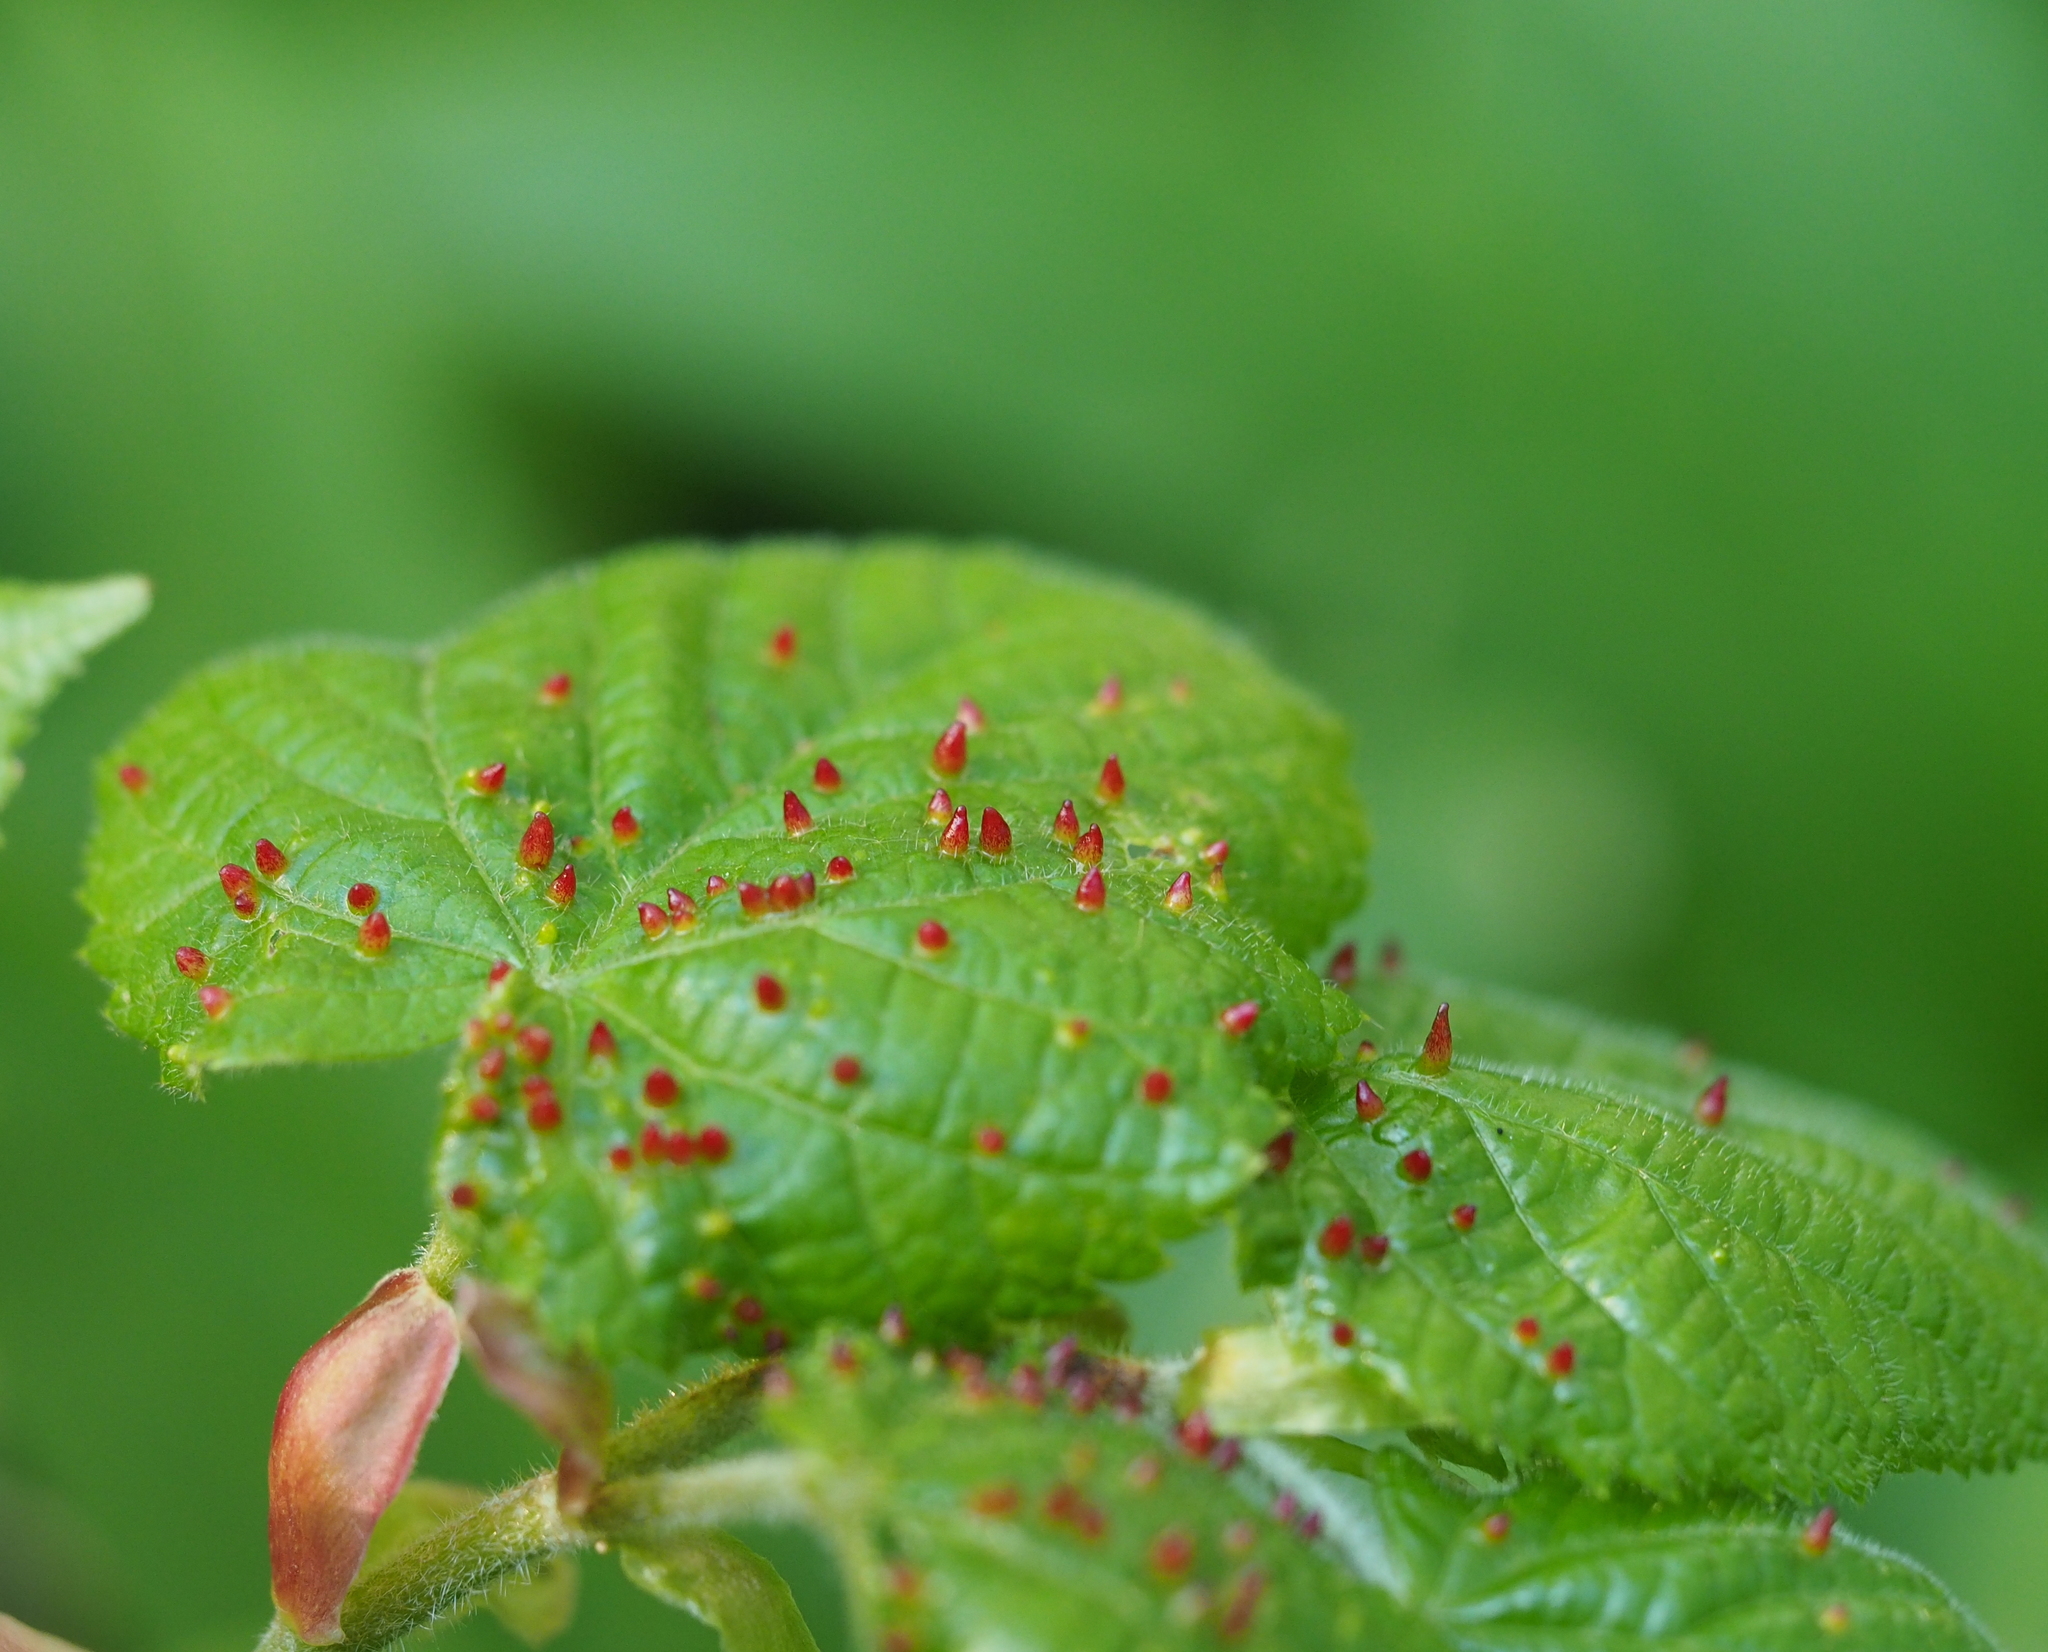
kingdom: Animalia
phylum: Arthropoda
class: Arachnida
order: Trombidiformes
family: Eriophyidae
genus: Eriophyes
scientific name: Eriophyes tiliae
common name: Red nail gall mite
